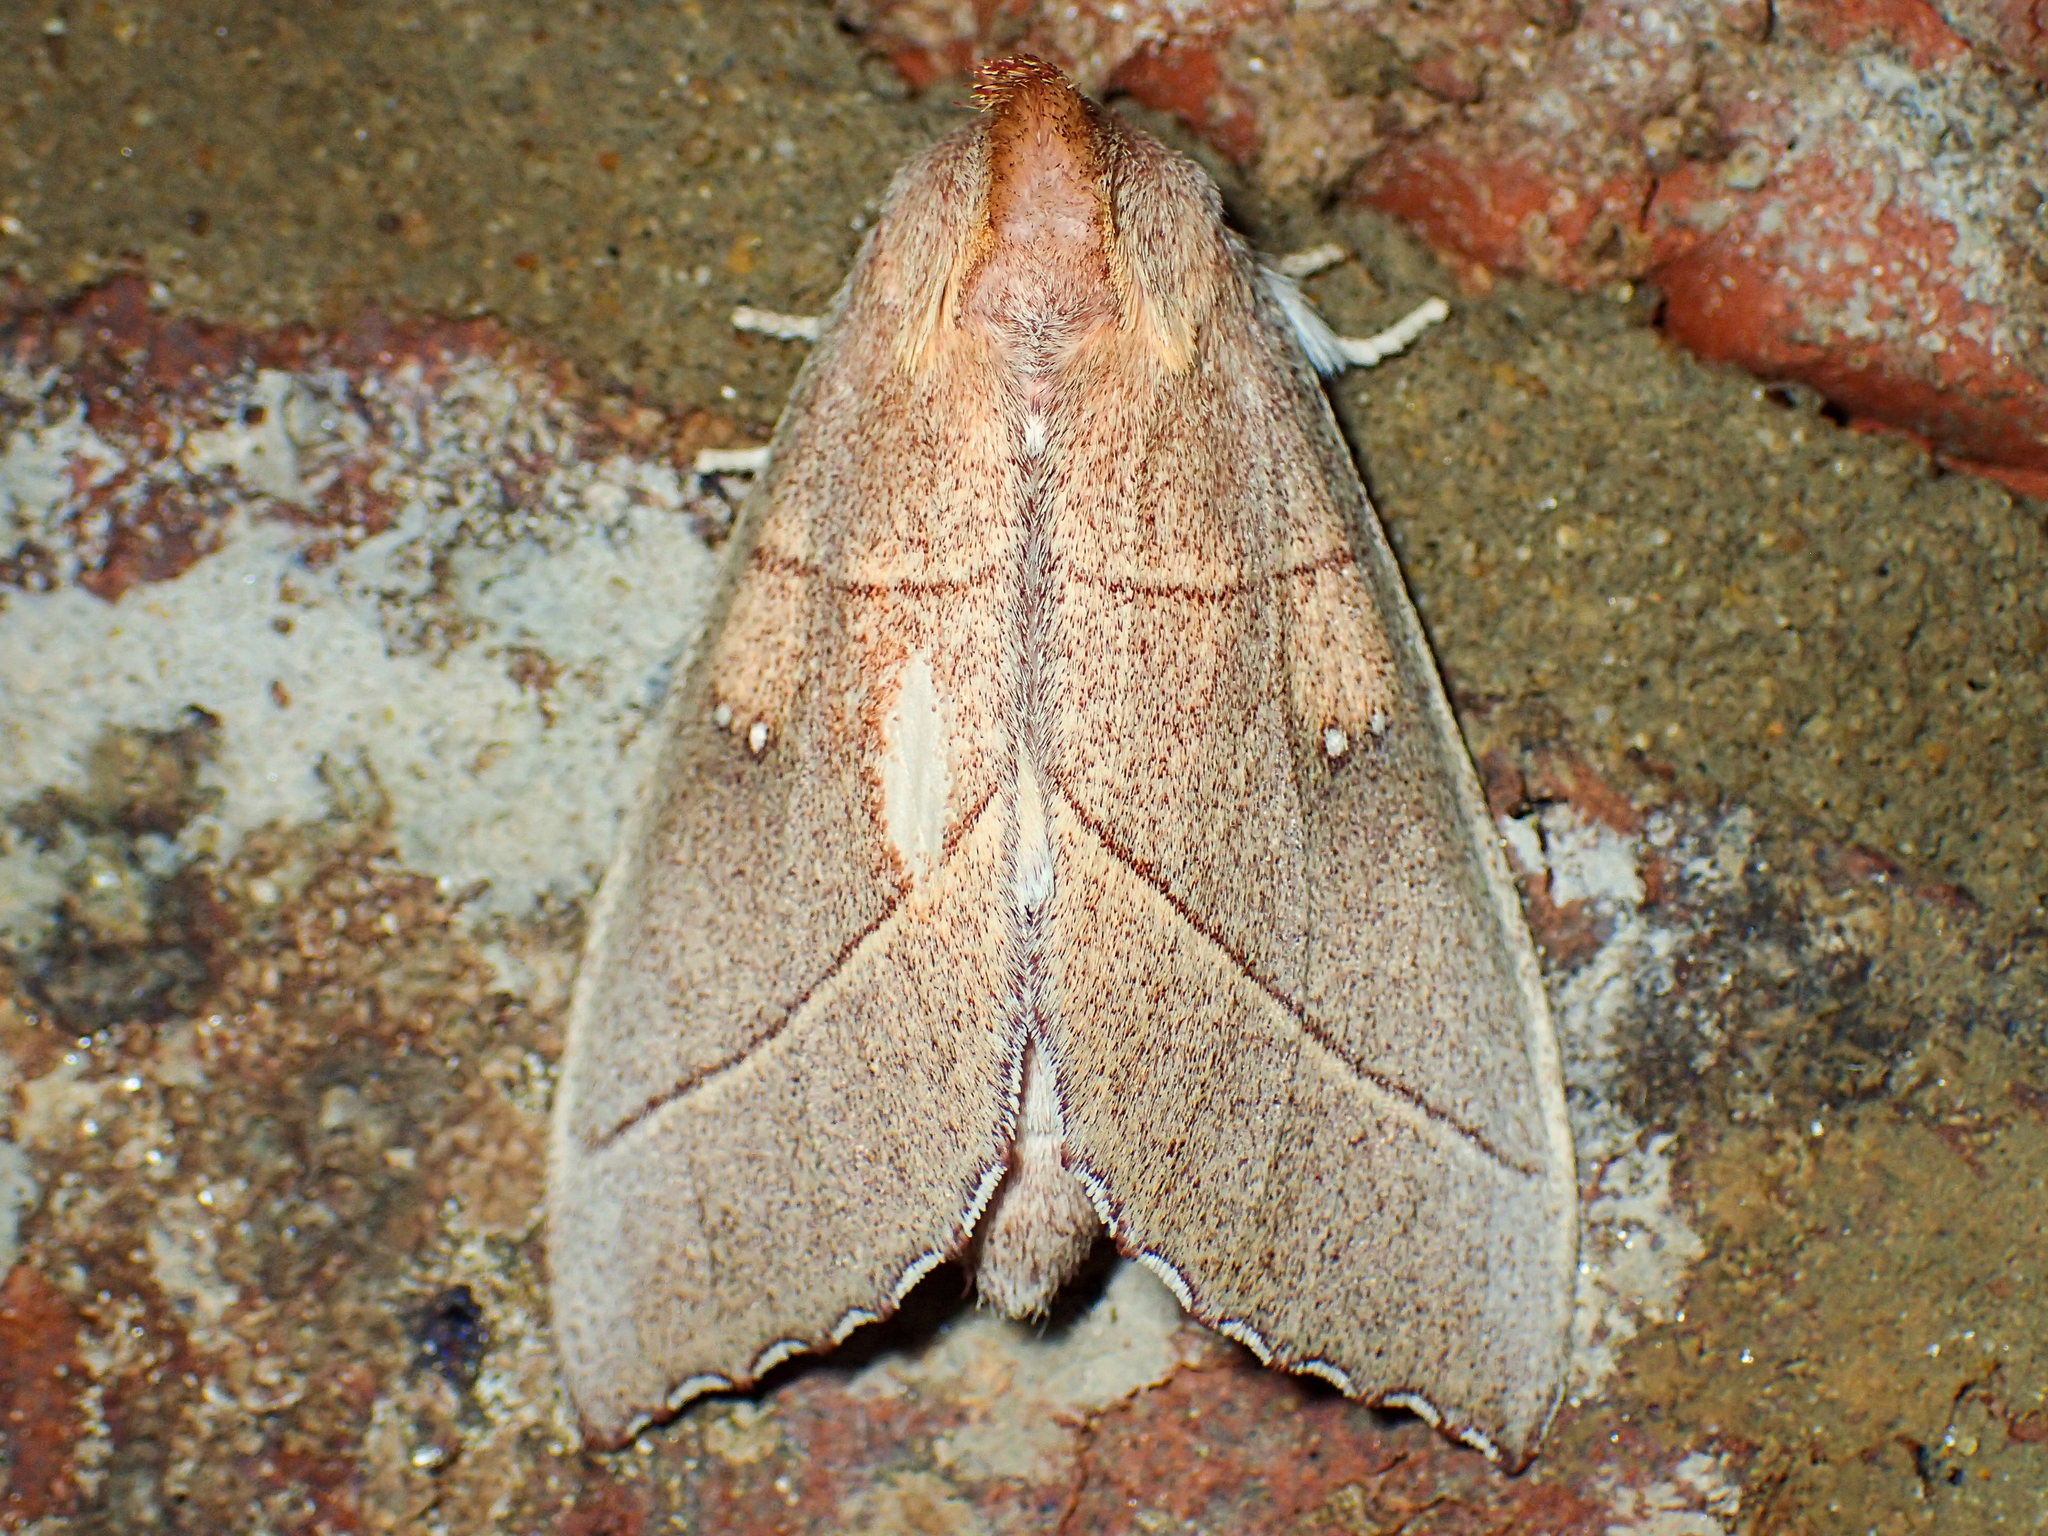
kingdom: Animalia
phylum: Arthropoda
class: Insecta
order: Lepidoptera
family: Notodontidae
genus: Nadata
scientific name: Nadata gibbosa
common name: White-dotted prominent
